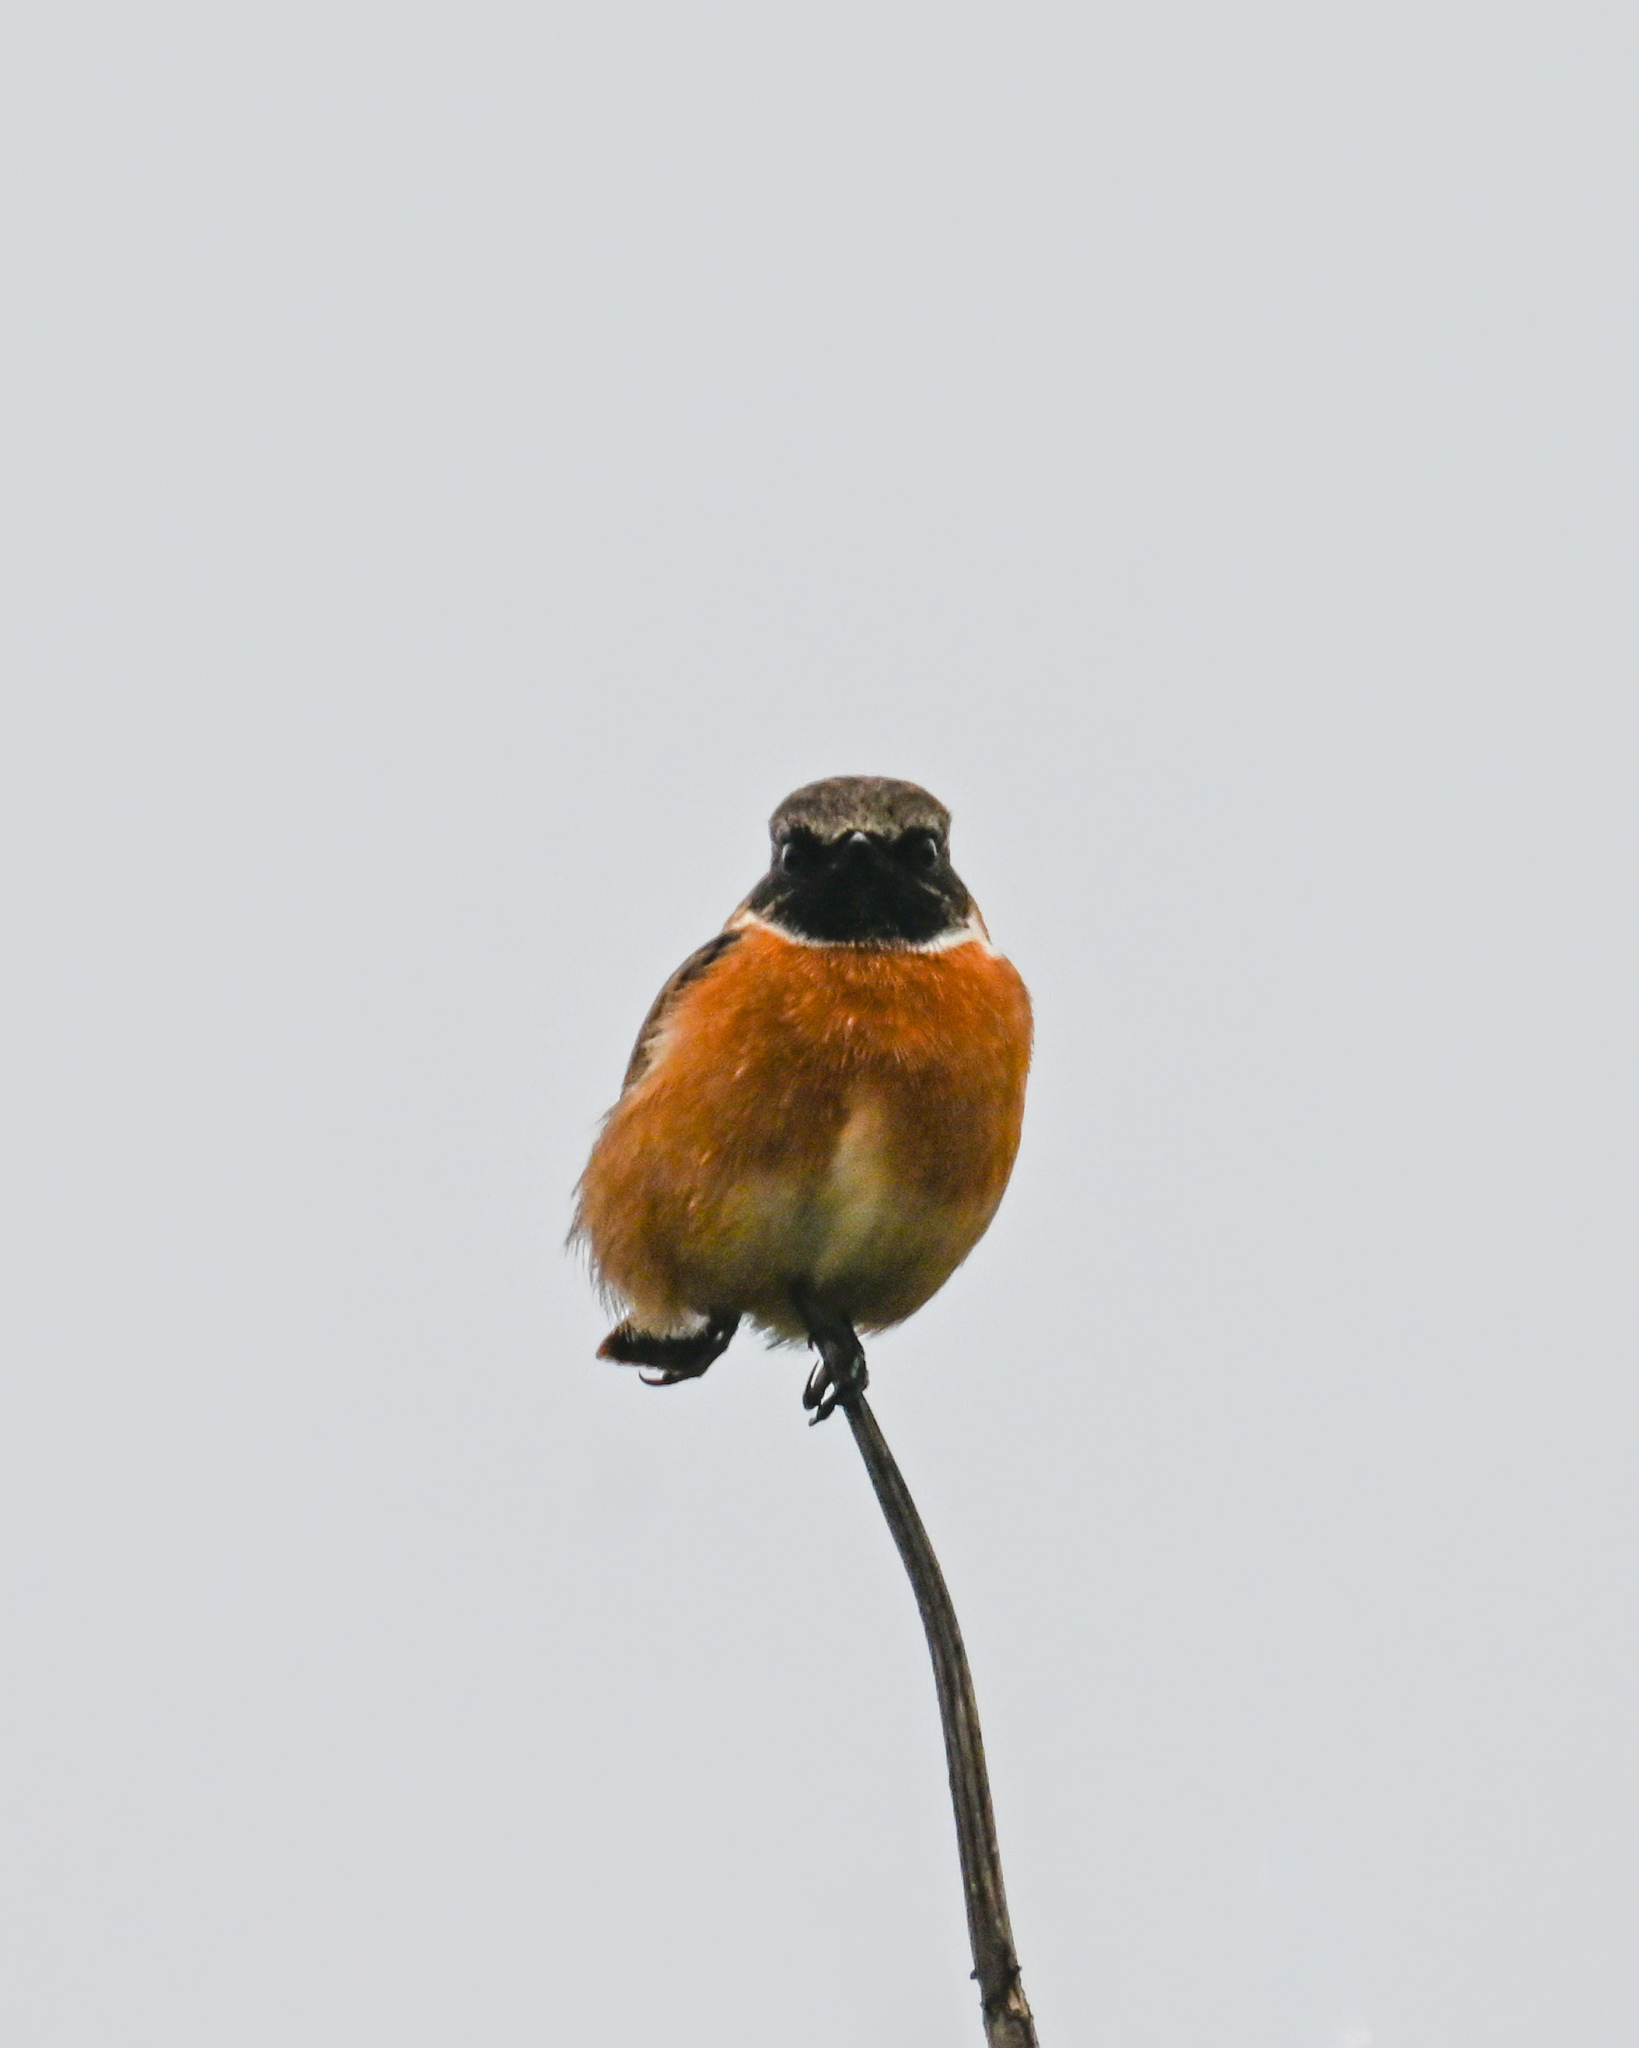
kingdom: Animalia
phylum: Chordata
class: Aves
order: Passeriformes
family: Muscicapidae
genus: Saxicola
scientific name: Saxicola rubicola
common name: European stonechat
